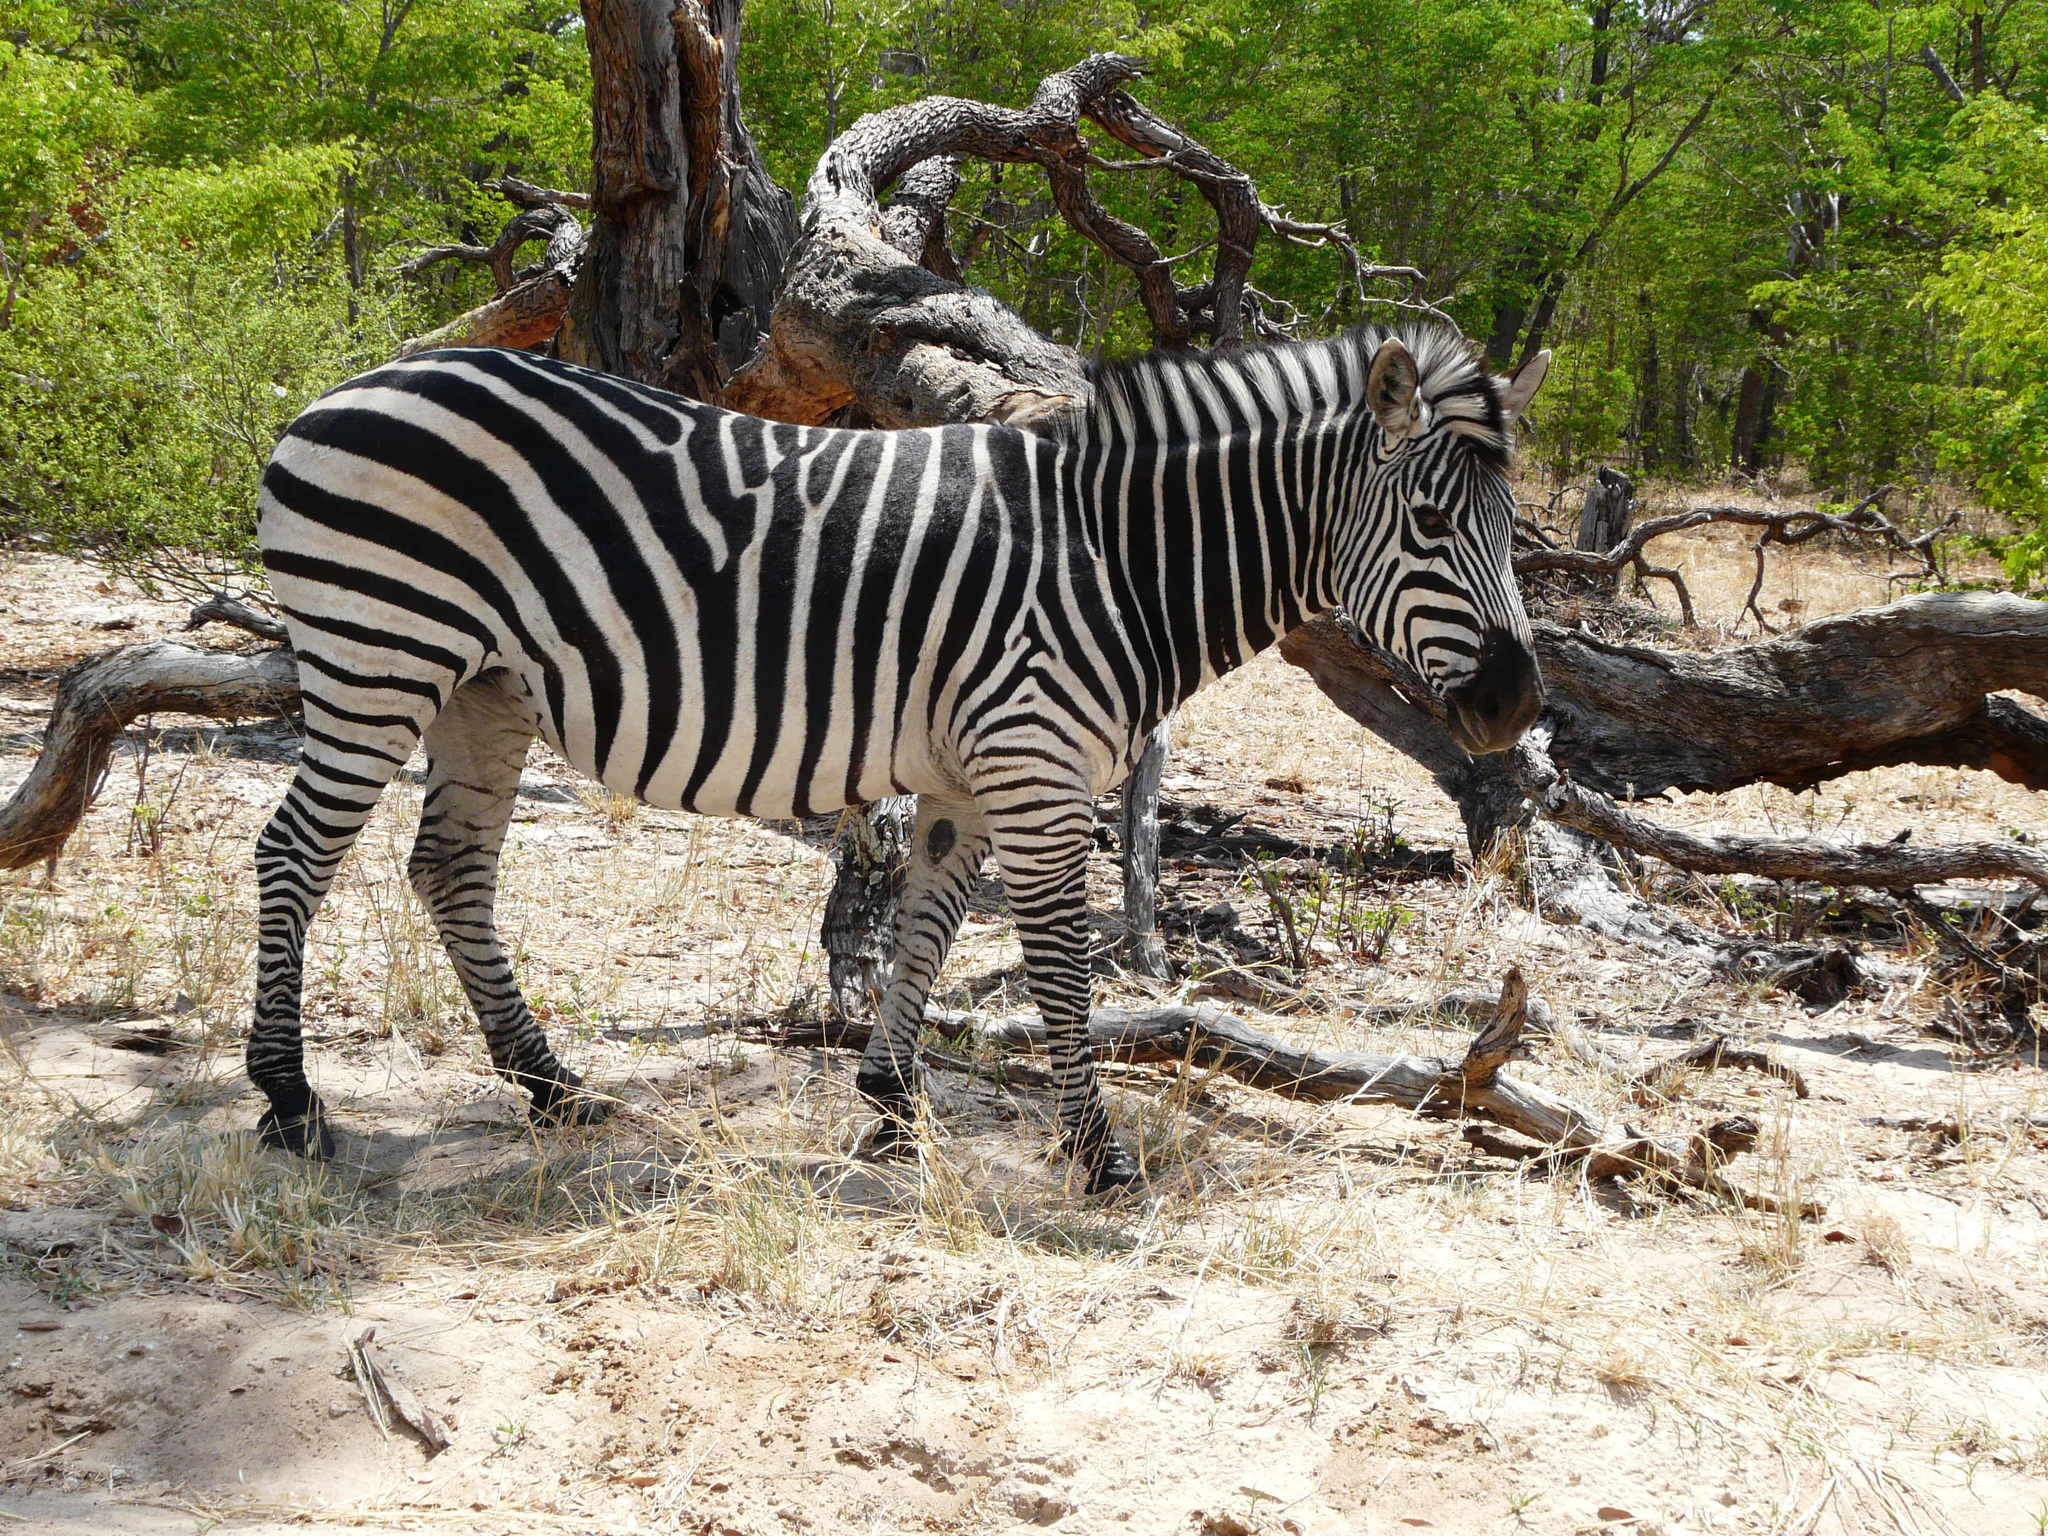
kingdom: Animalia
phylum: Chordata
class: Mammalia
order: Perissodactyla
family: Equidae
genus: Equus
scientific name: Equus quagga
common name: Plains zebra
